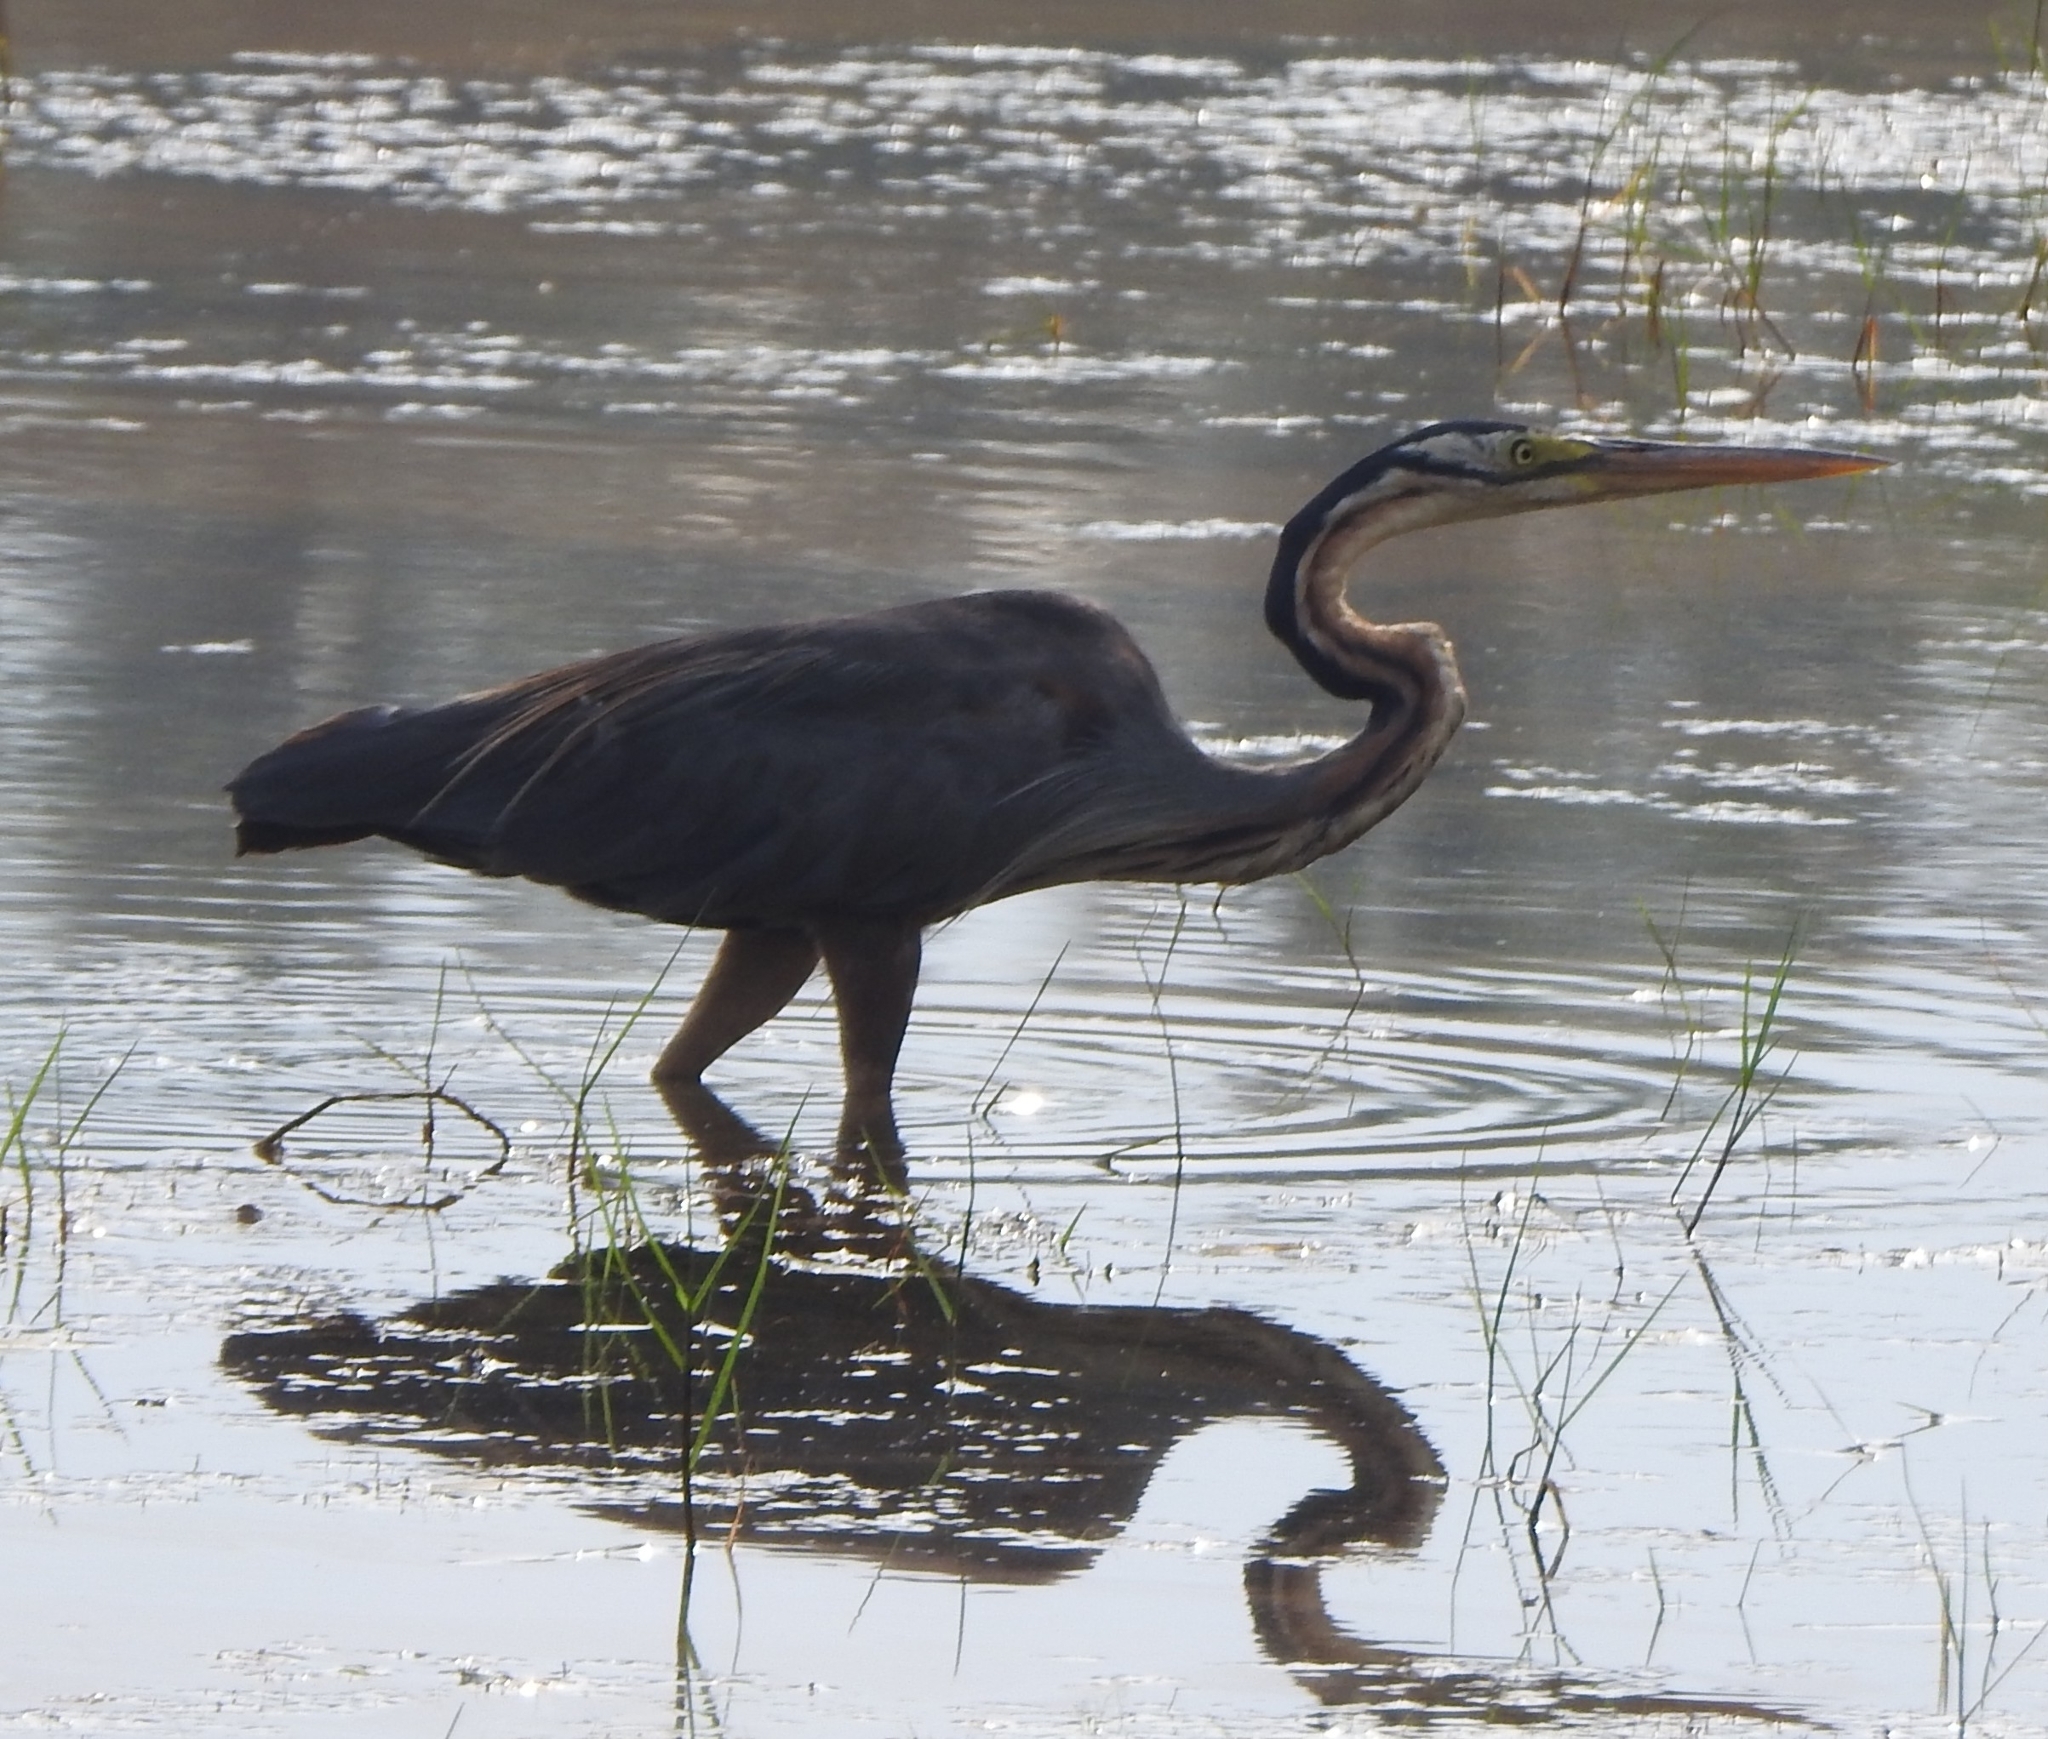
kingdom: Animalia
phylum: Chordata
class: Aves
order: Pelecaniformes
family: Ardeidae
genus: Ardea
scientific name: Ardea purpurea
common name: Purple heron
